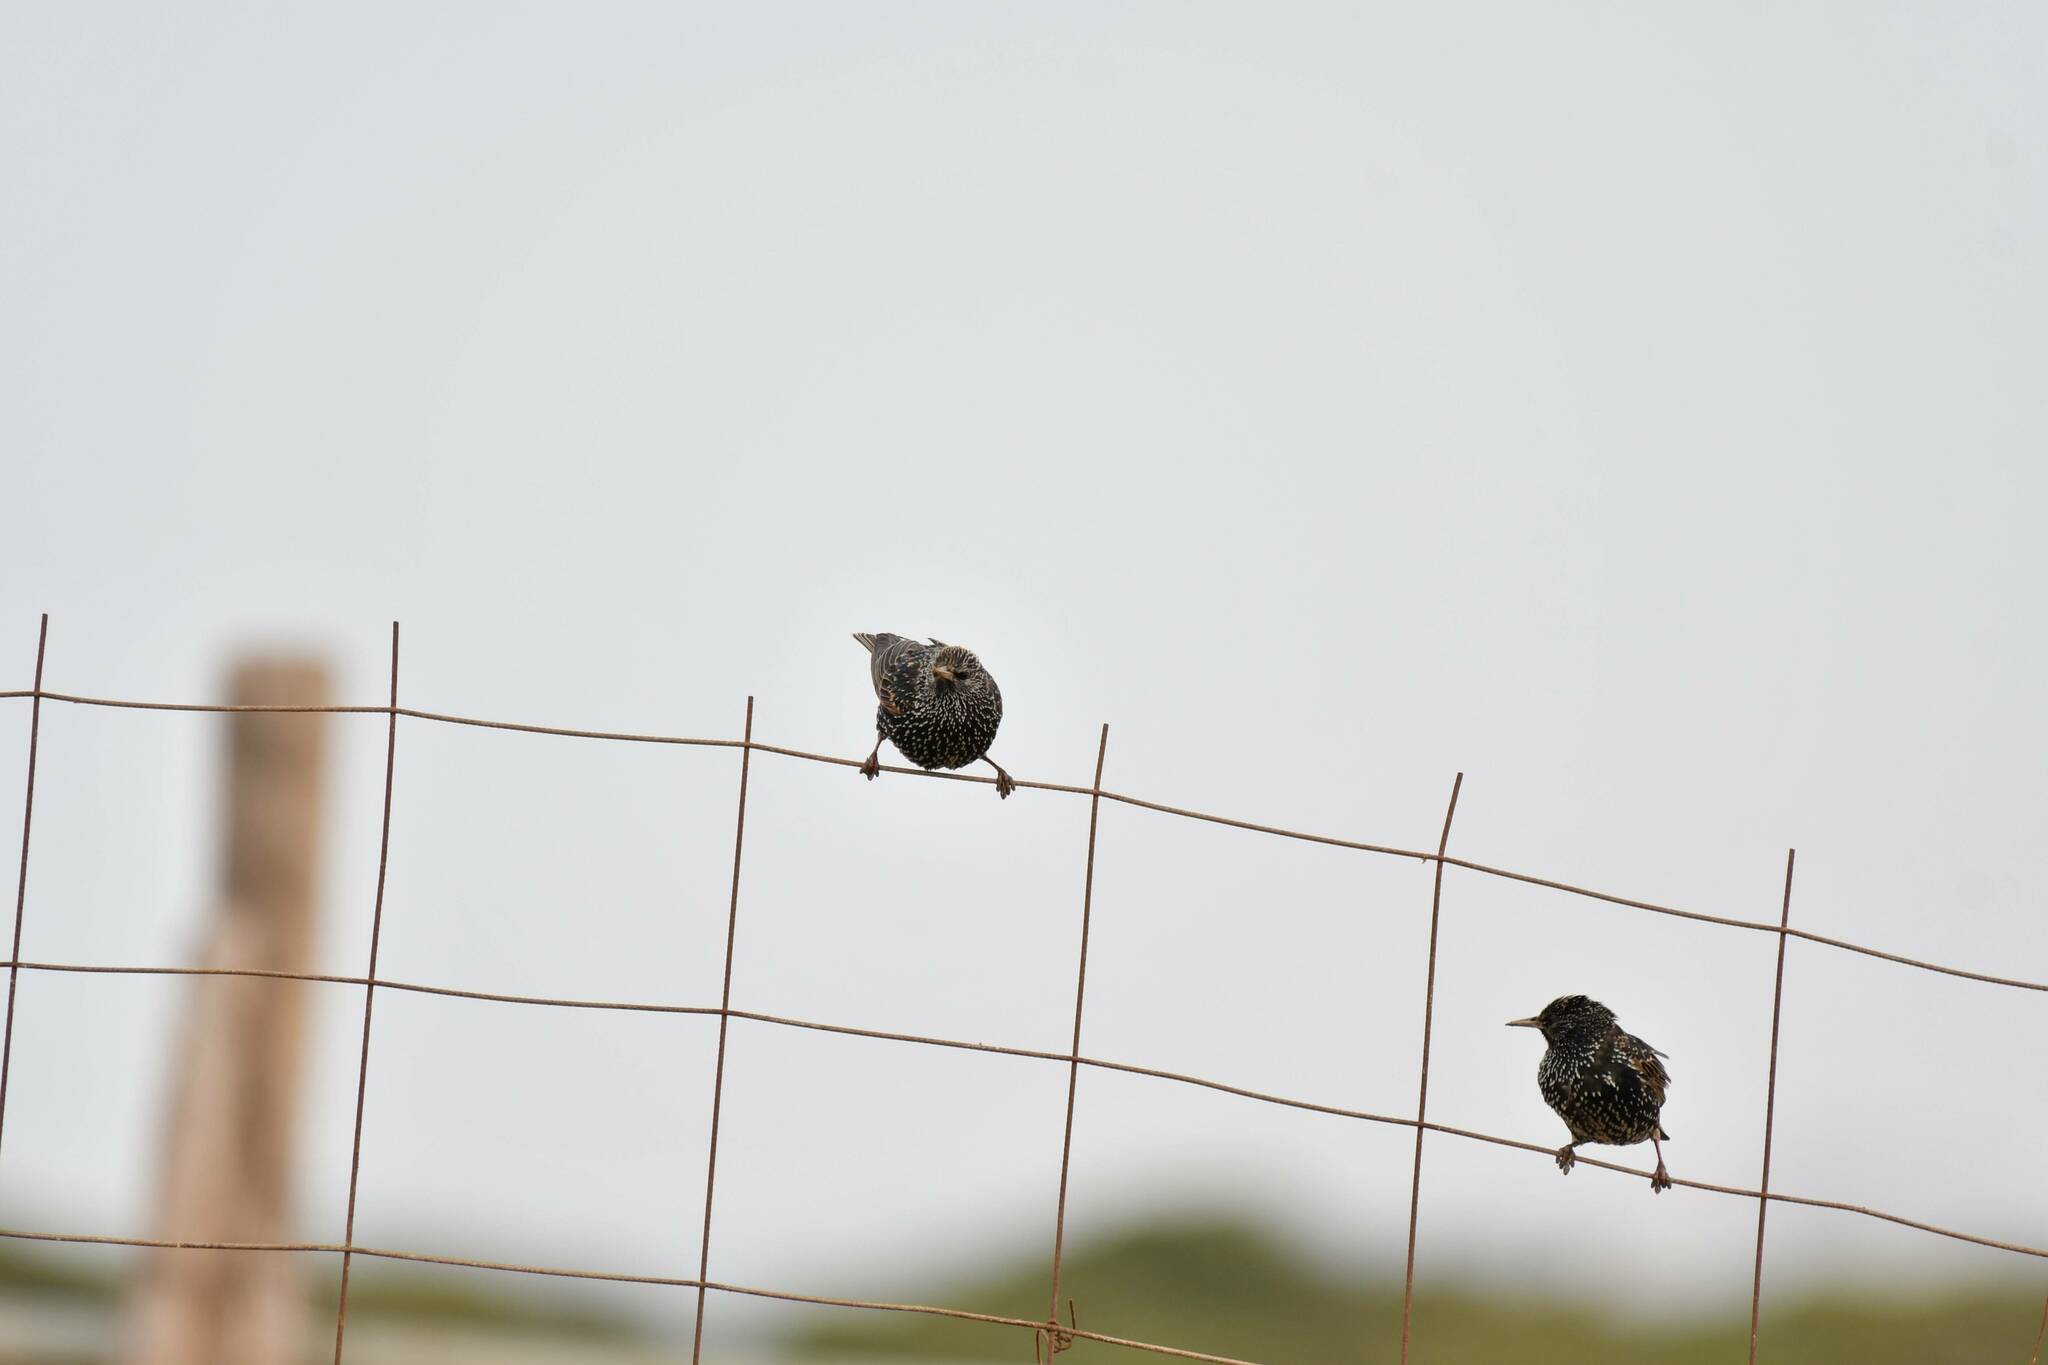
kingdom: Animalia
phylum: Chordata
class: Aves
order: Passeriformes
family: Sturnidae
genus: Sturnus
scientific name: Sturnus vulgaris
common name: Common starling
